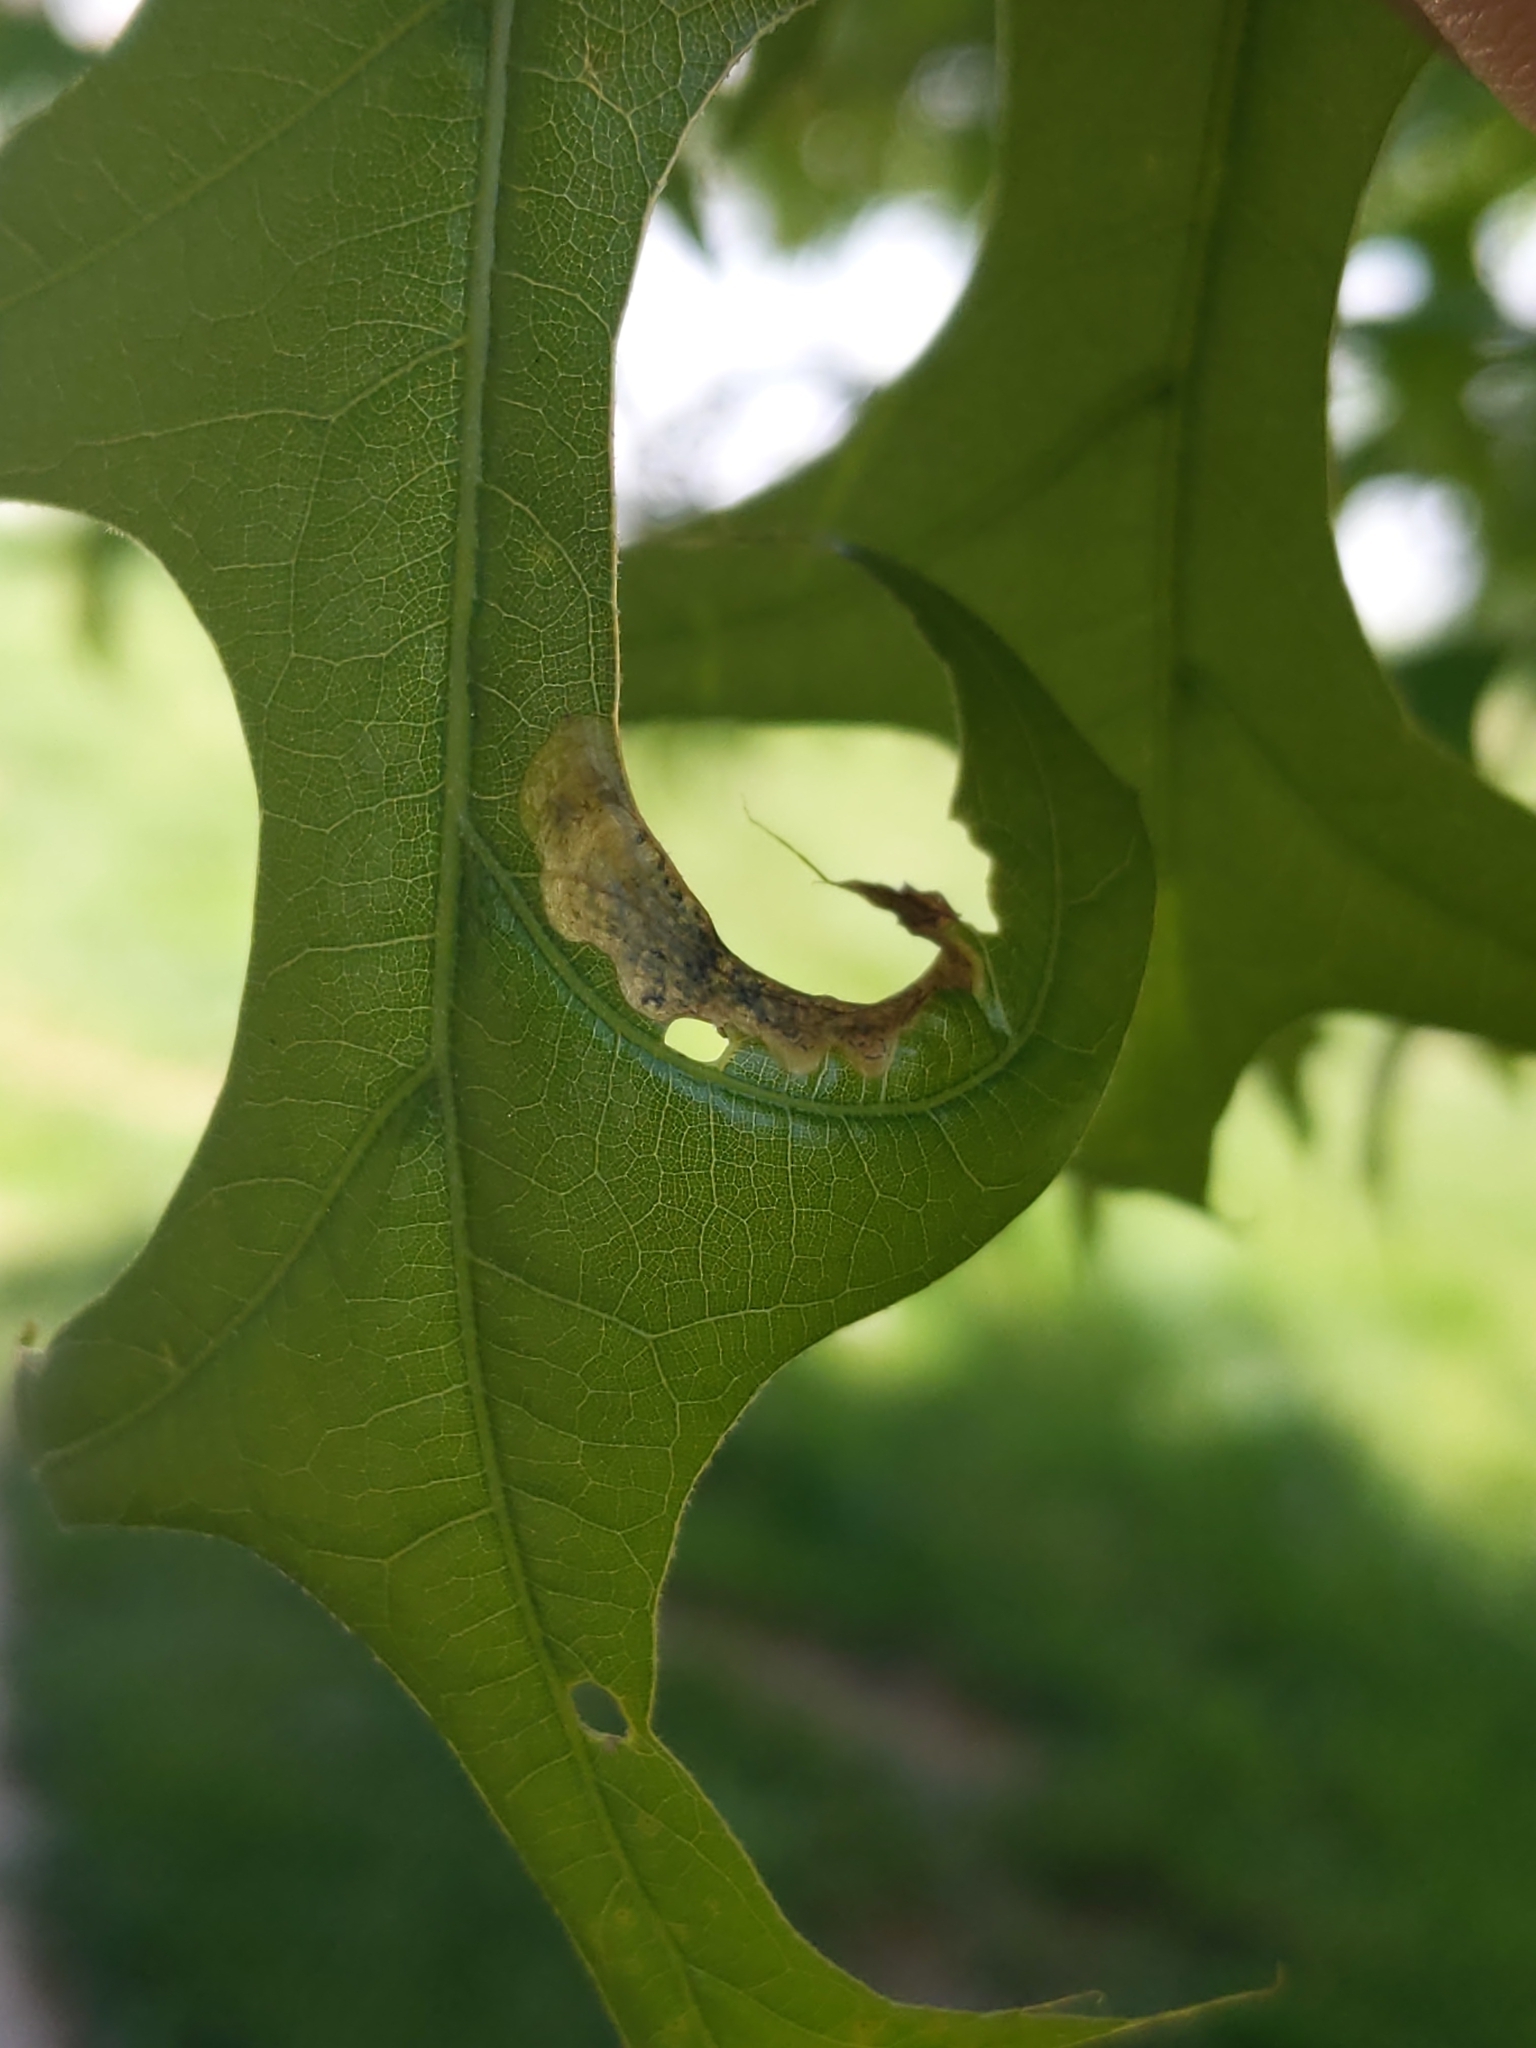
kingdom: Animalia
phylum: Arthropoda
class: Insecta
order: Diptera
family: Agromyzidae
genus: Japanagromyza
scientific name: Japanagromyza viridula
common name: Oak shothole leafminer
